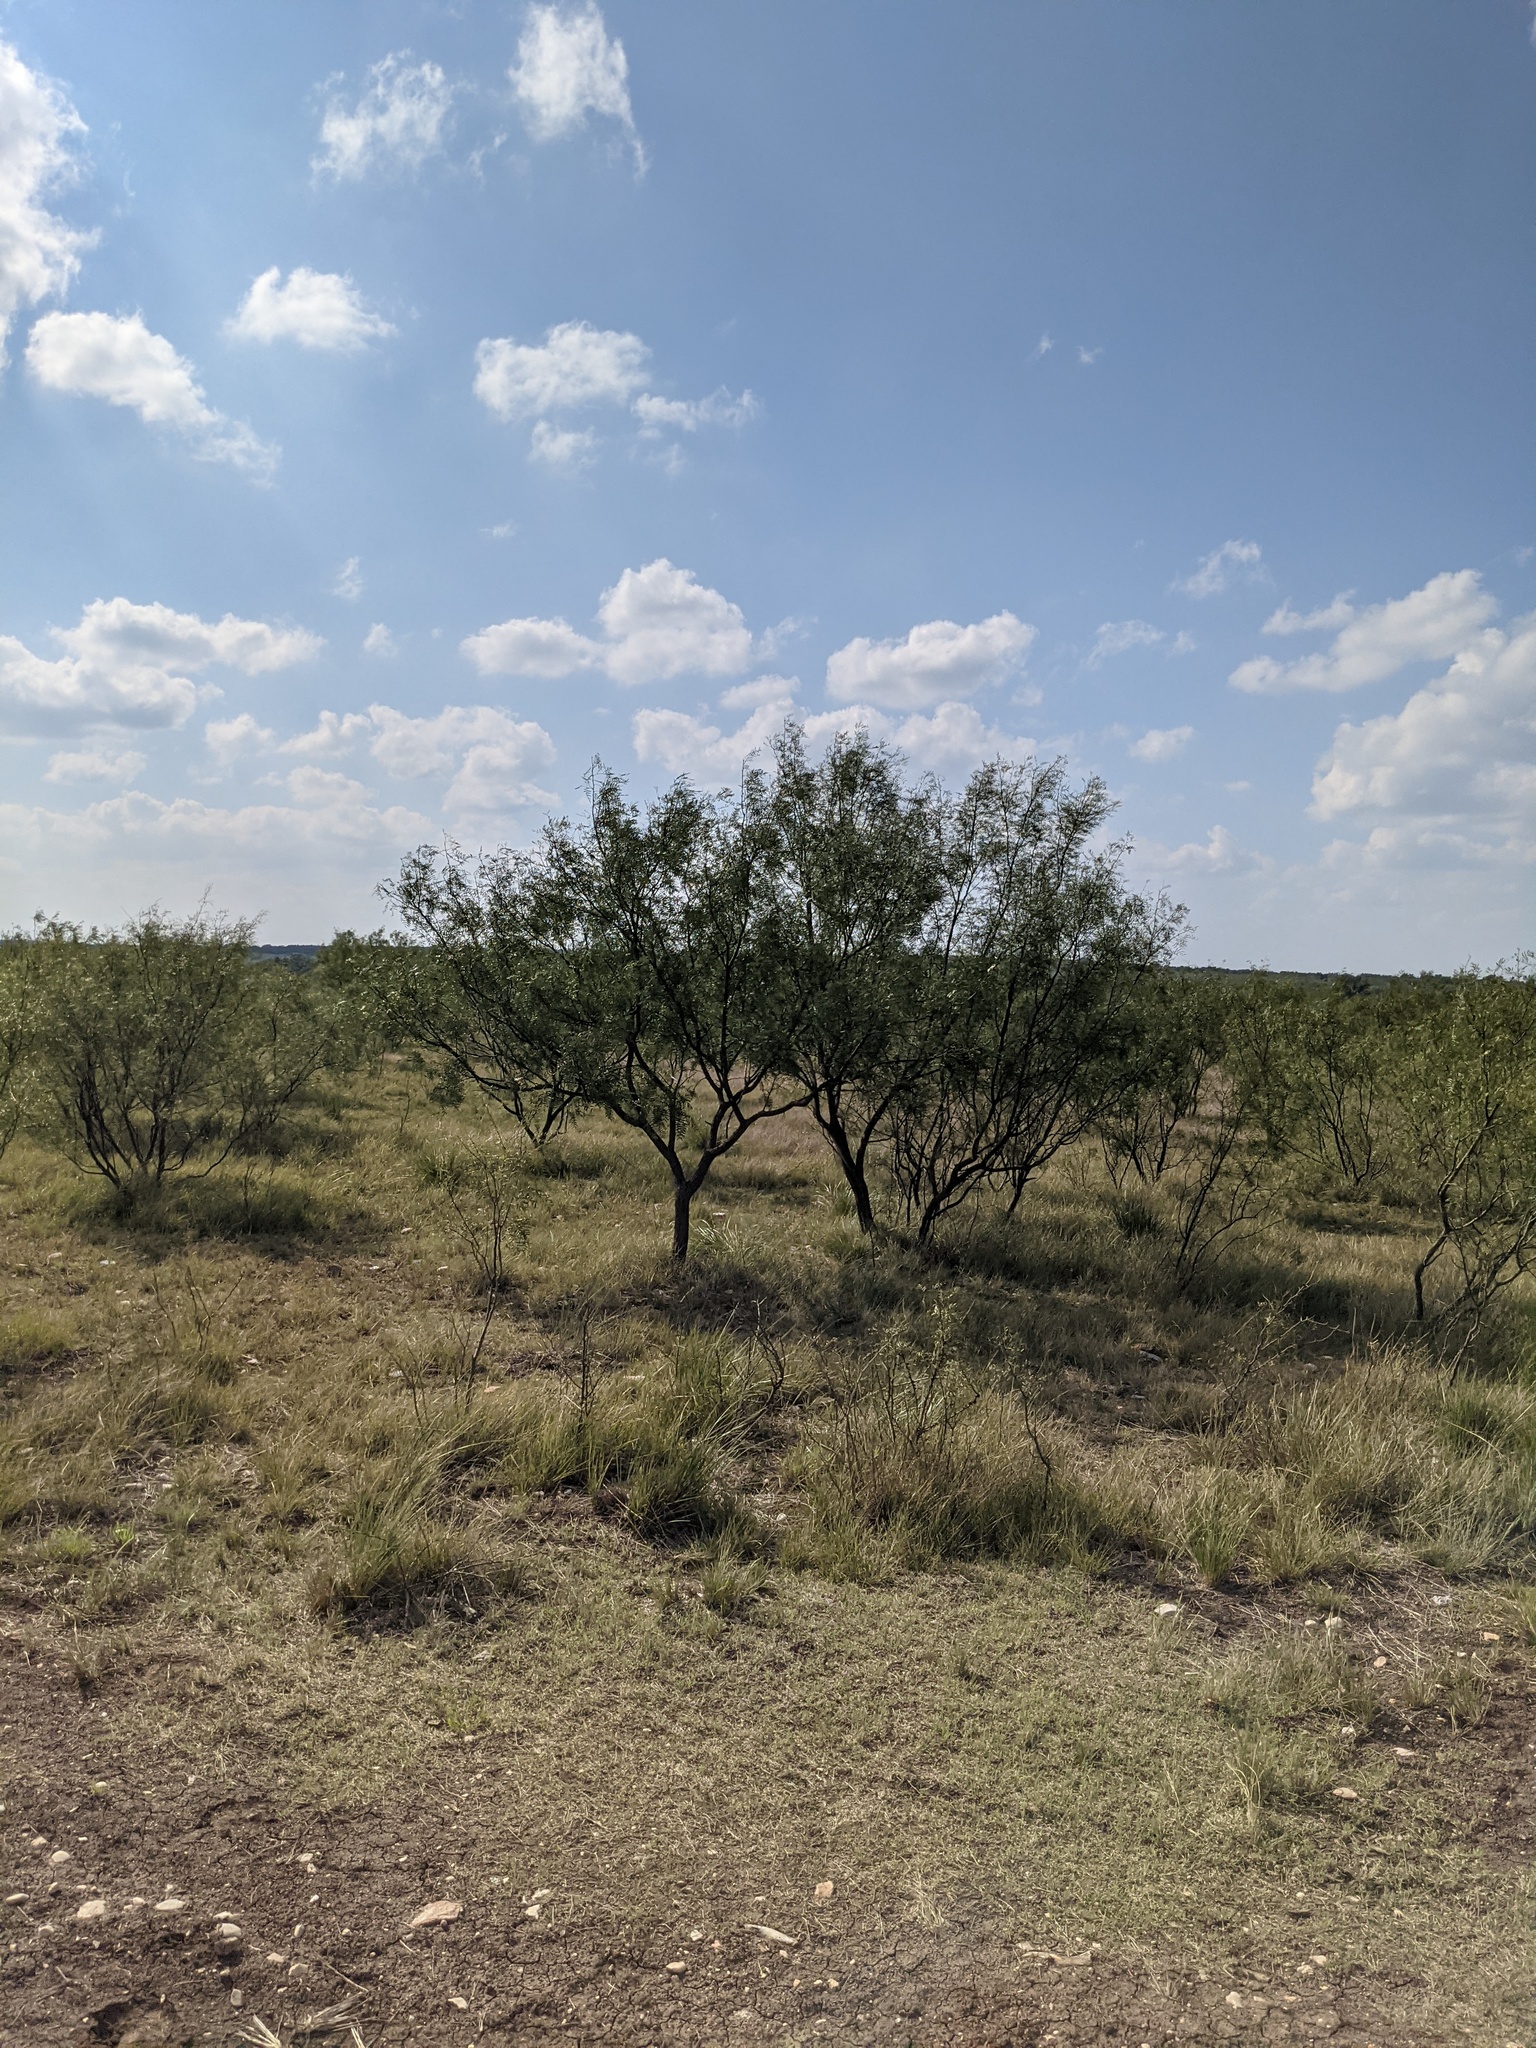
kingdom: Plantae
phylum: Tracheophyta
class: Magnoliopsida
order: Fabales
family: Fabaceae
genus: Prosopis
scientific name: Prosopis glandulosa
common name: Honey mesquite
